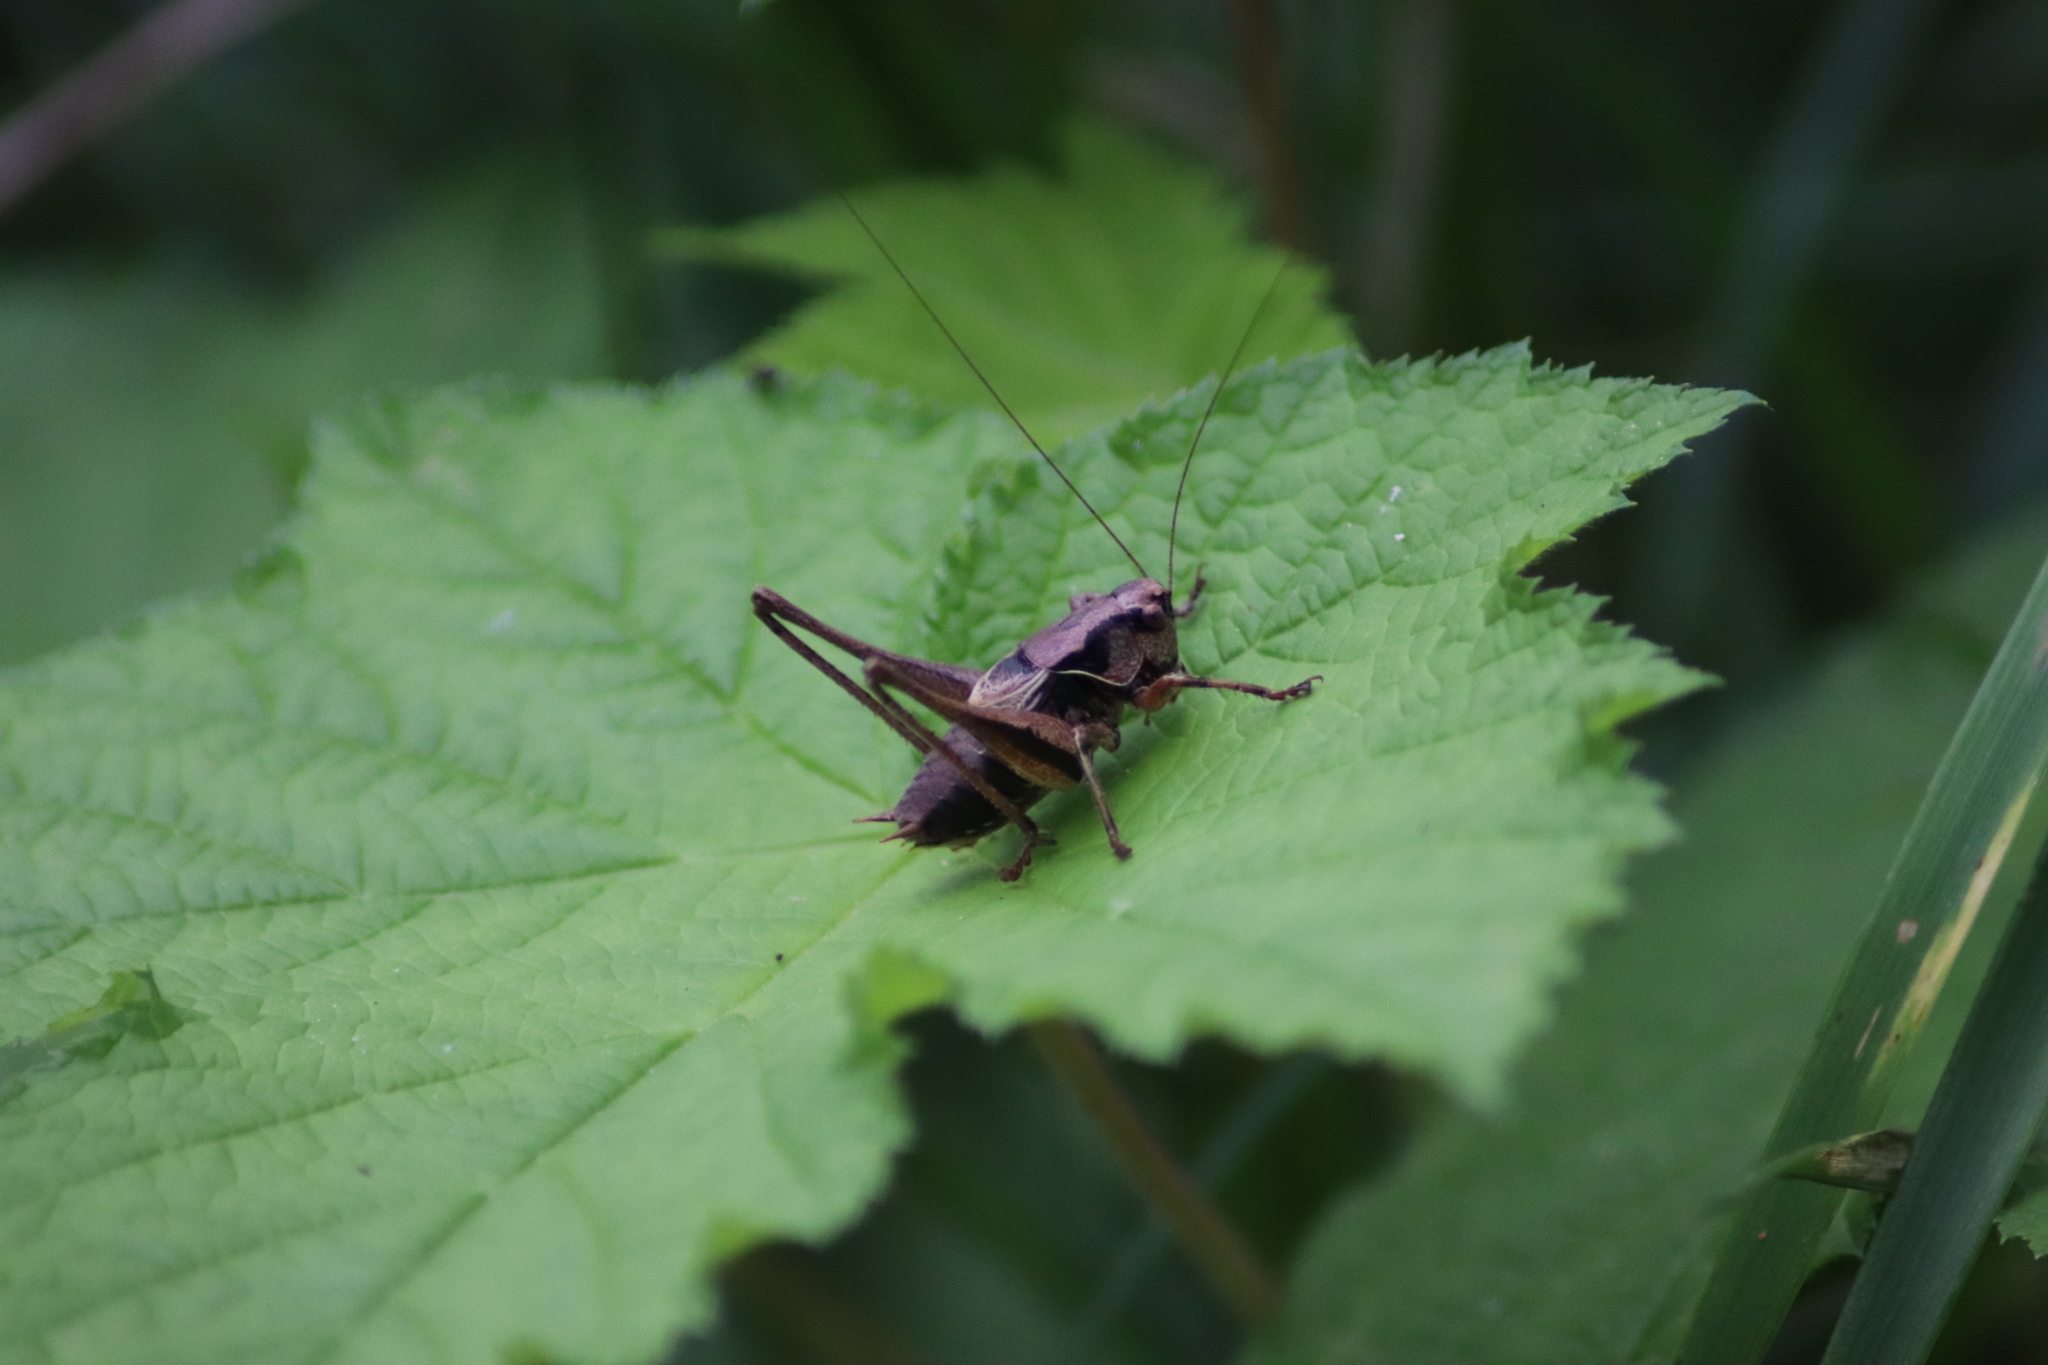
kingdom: Animalia
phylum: Arthropoda
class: Insecta
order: Orthoptera
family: Tettigoniidae
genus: Pholidoptera
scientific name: Pholidoptera griseoaptera
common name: Dark bush-cricket
